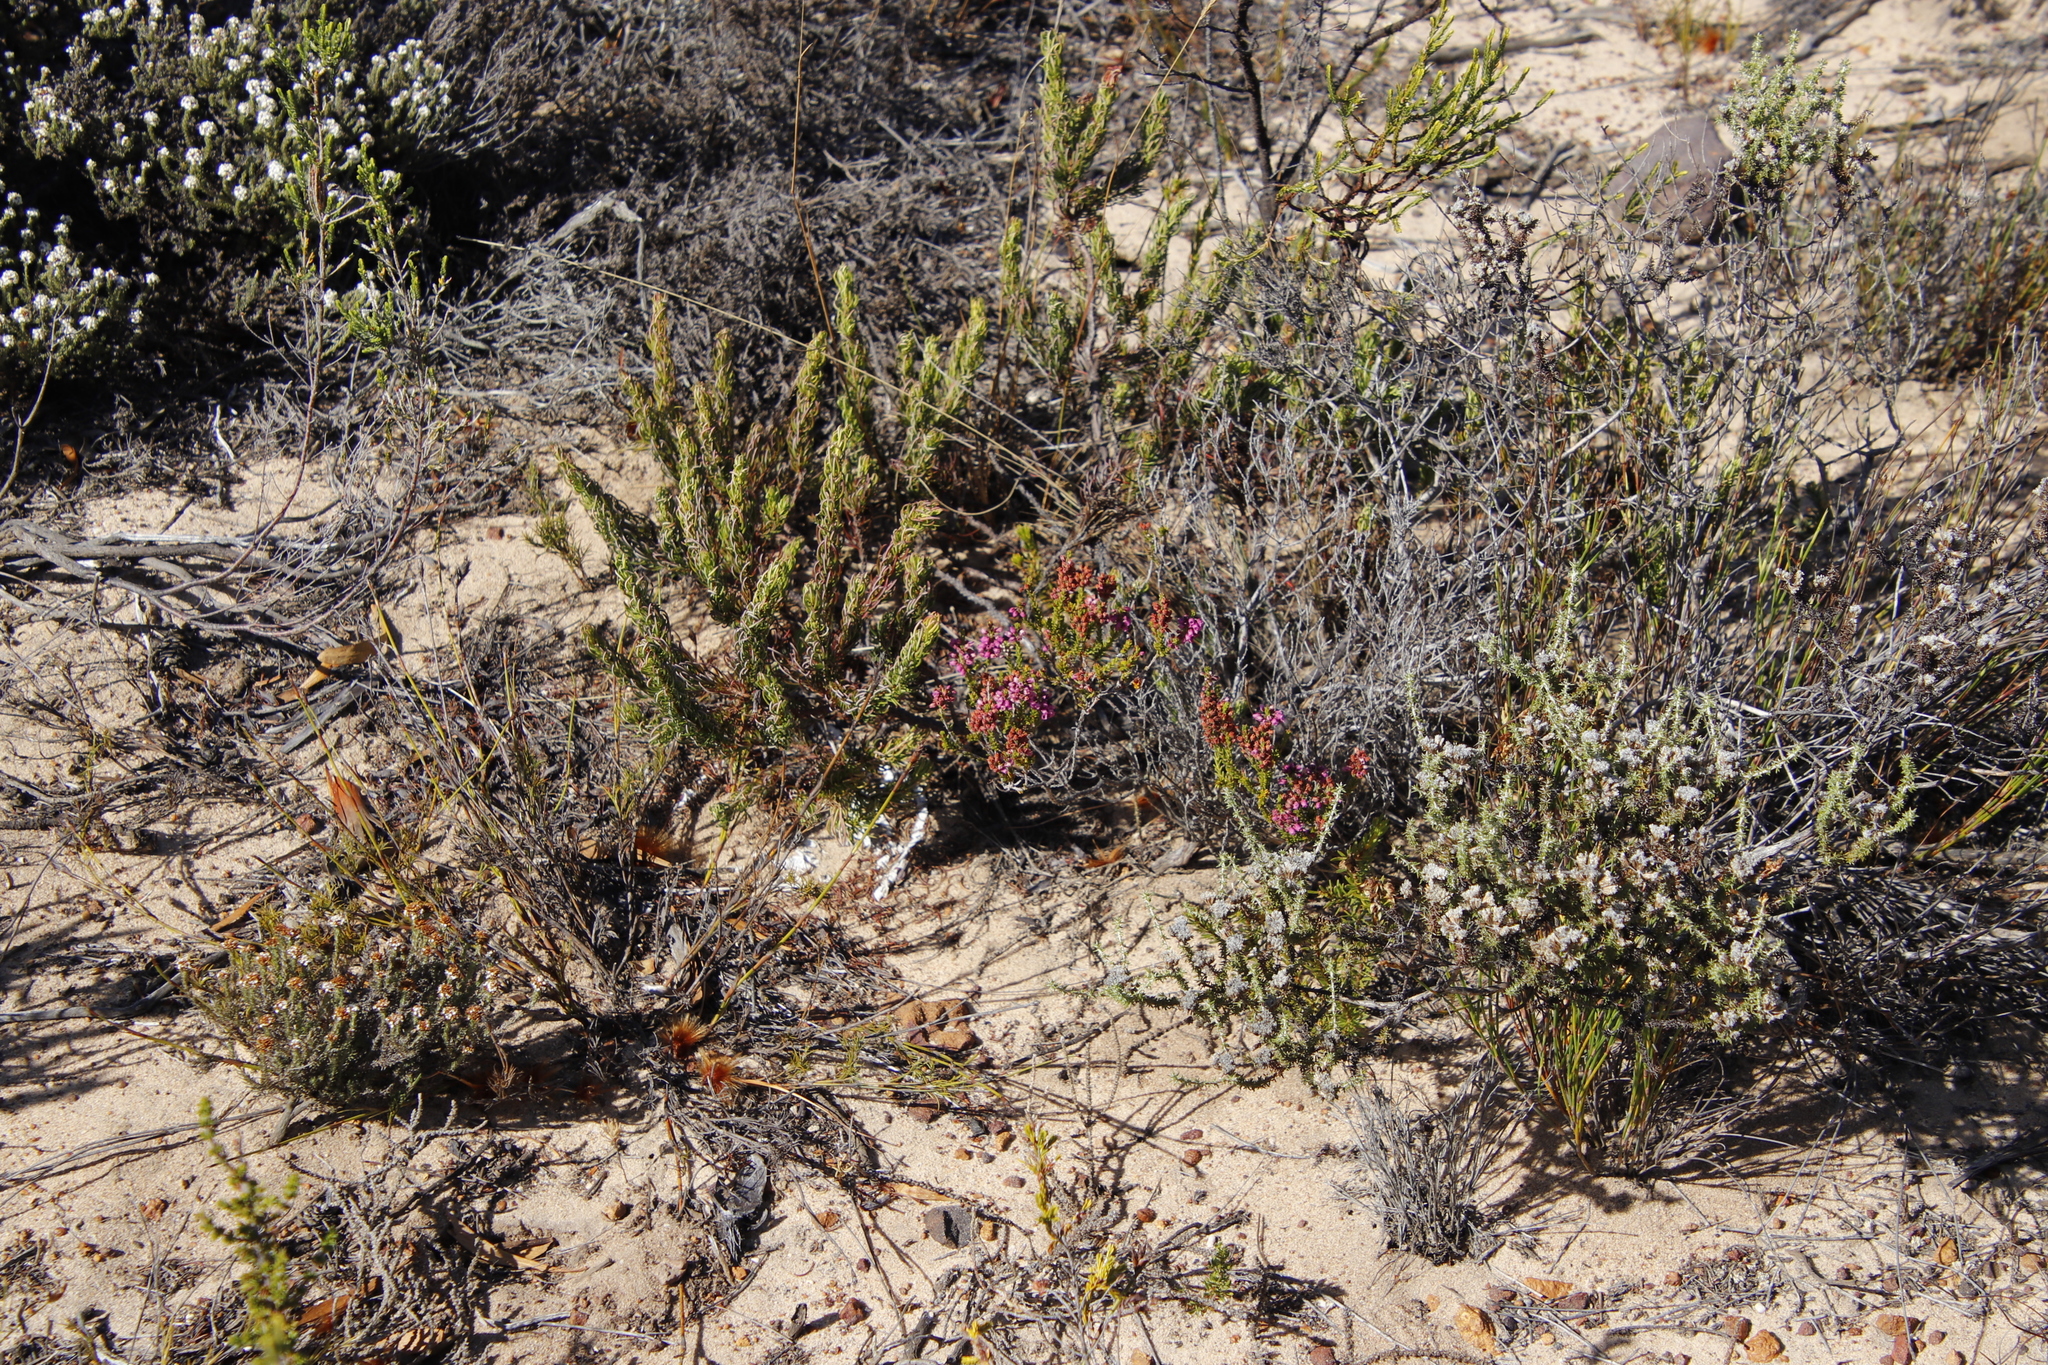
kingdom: Plantae
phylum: Tracheophyta
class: Magnoliopsida
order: Ericales
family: Ericaceae
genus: Erica
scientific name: Erica pulchella
